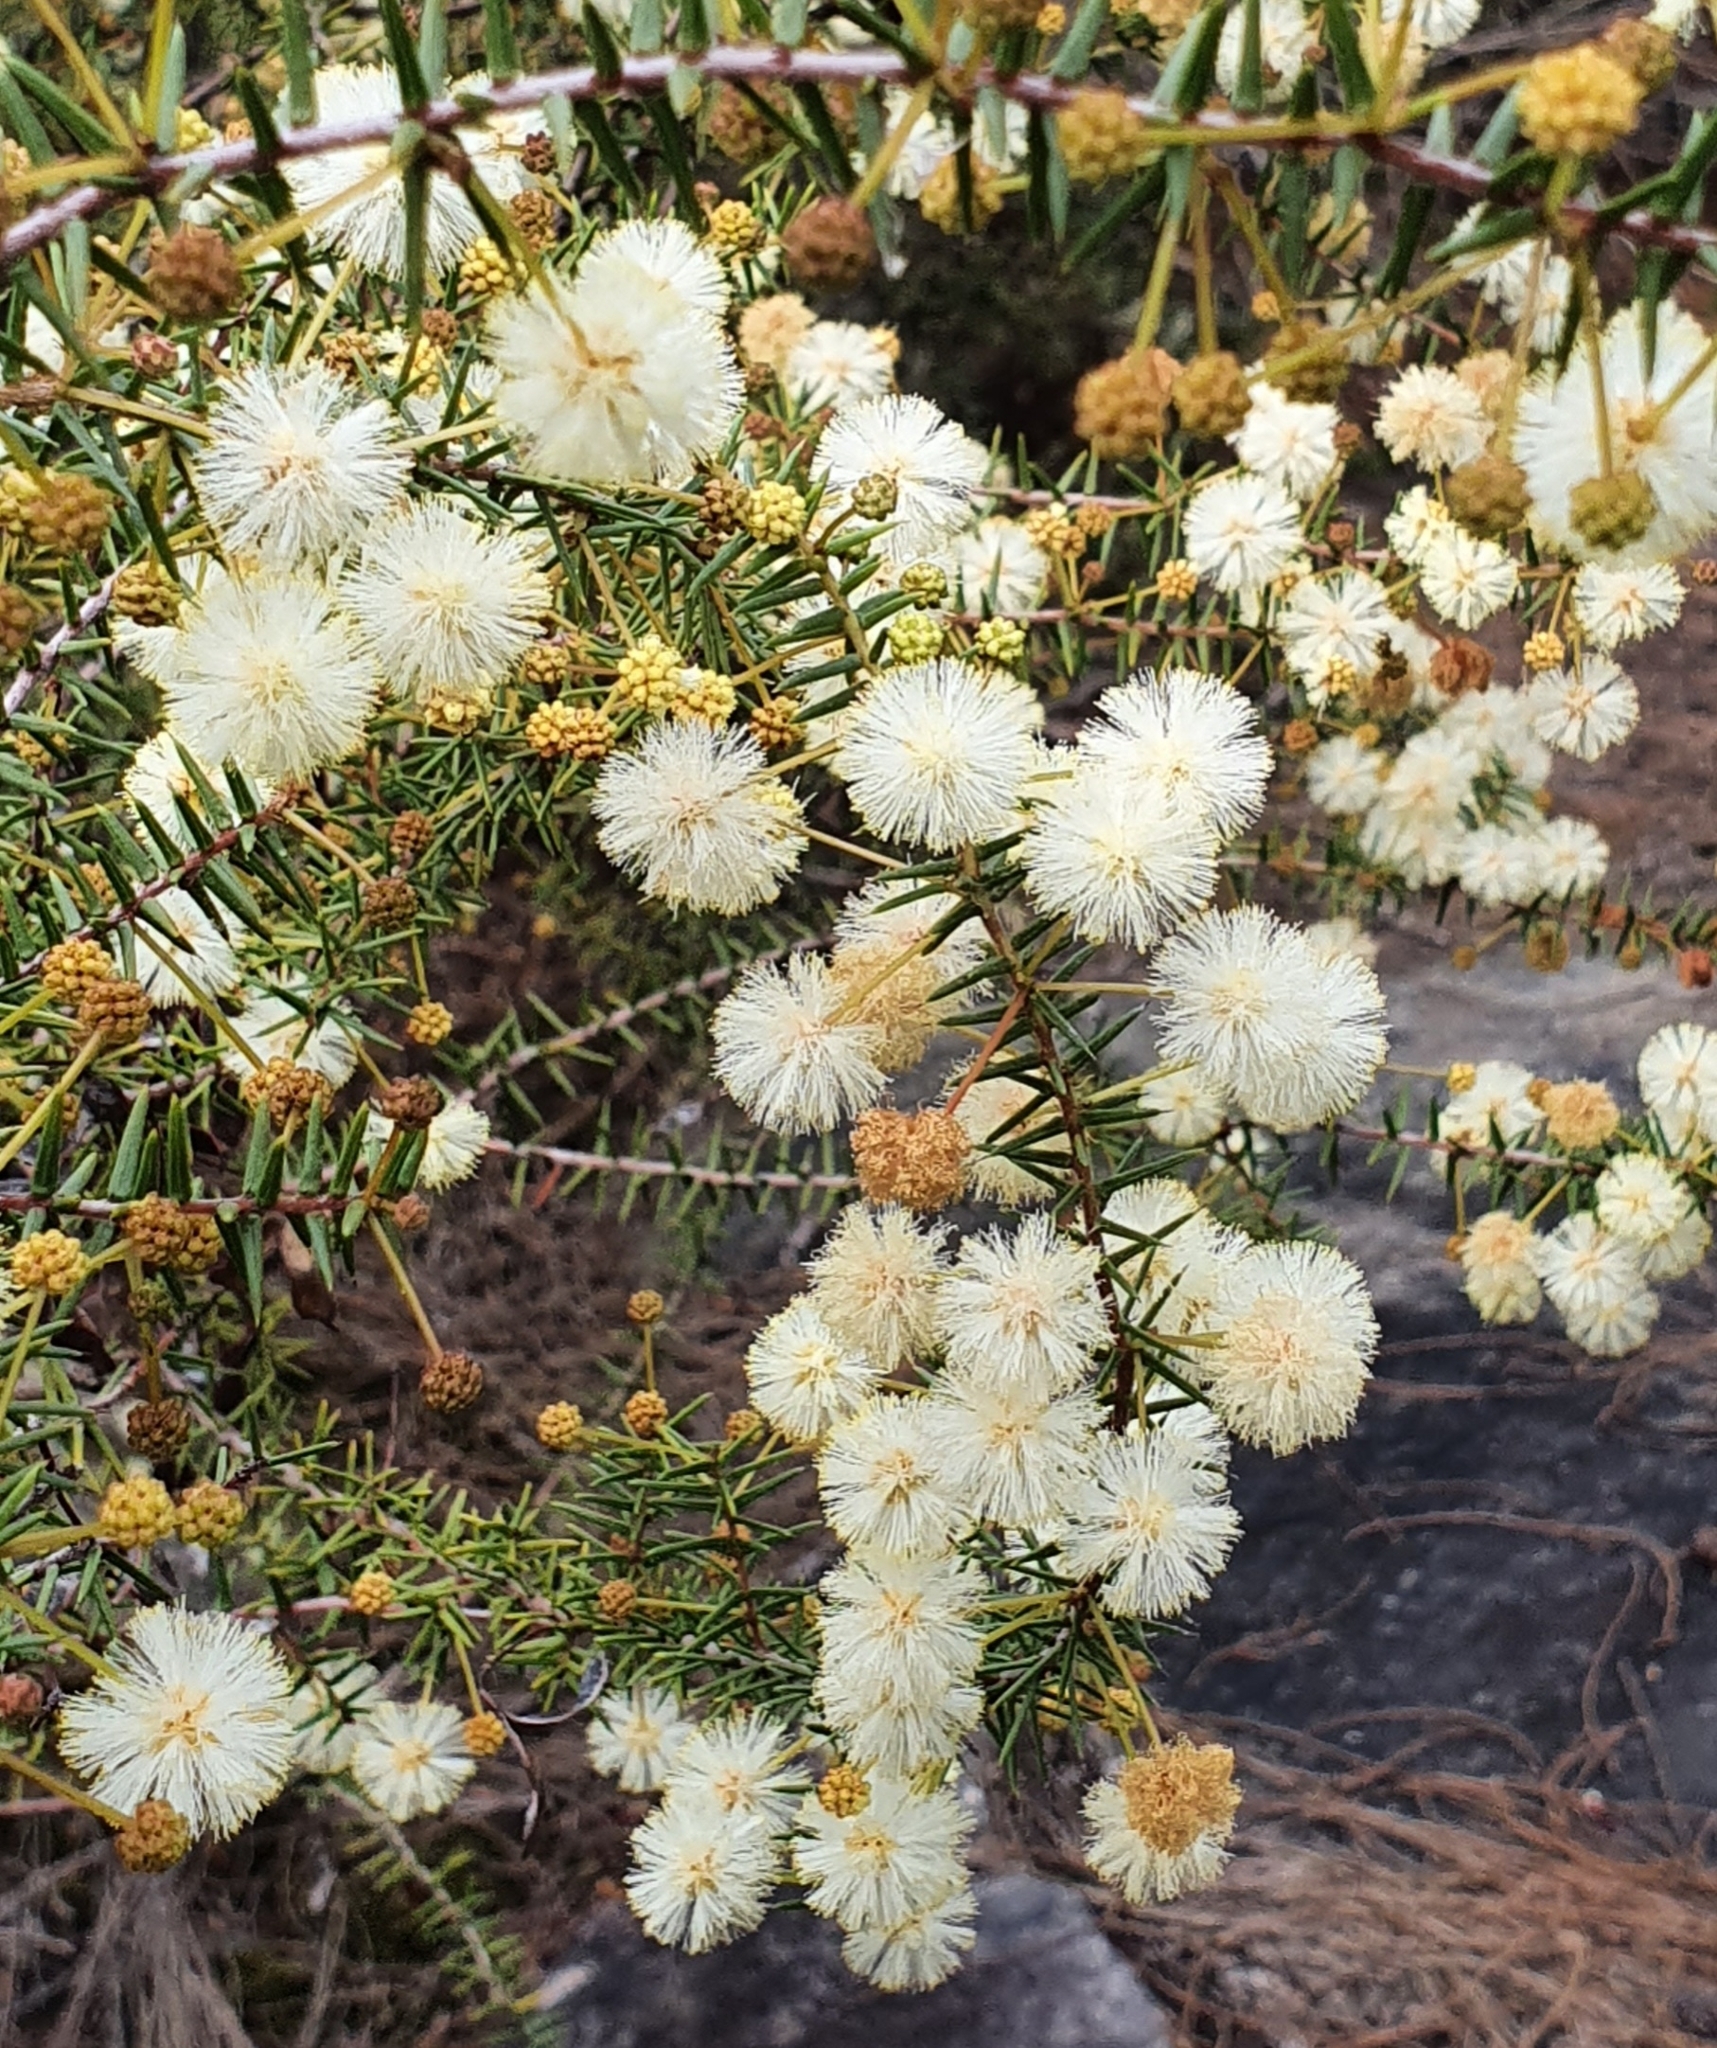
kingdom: Plantae
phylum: Tracheophyta
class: Magnoliopsida
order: Fabales
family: Fabaceae
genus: Acacia
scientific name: Acacia ulicifolia
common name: Juniper wattle
